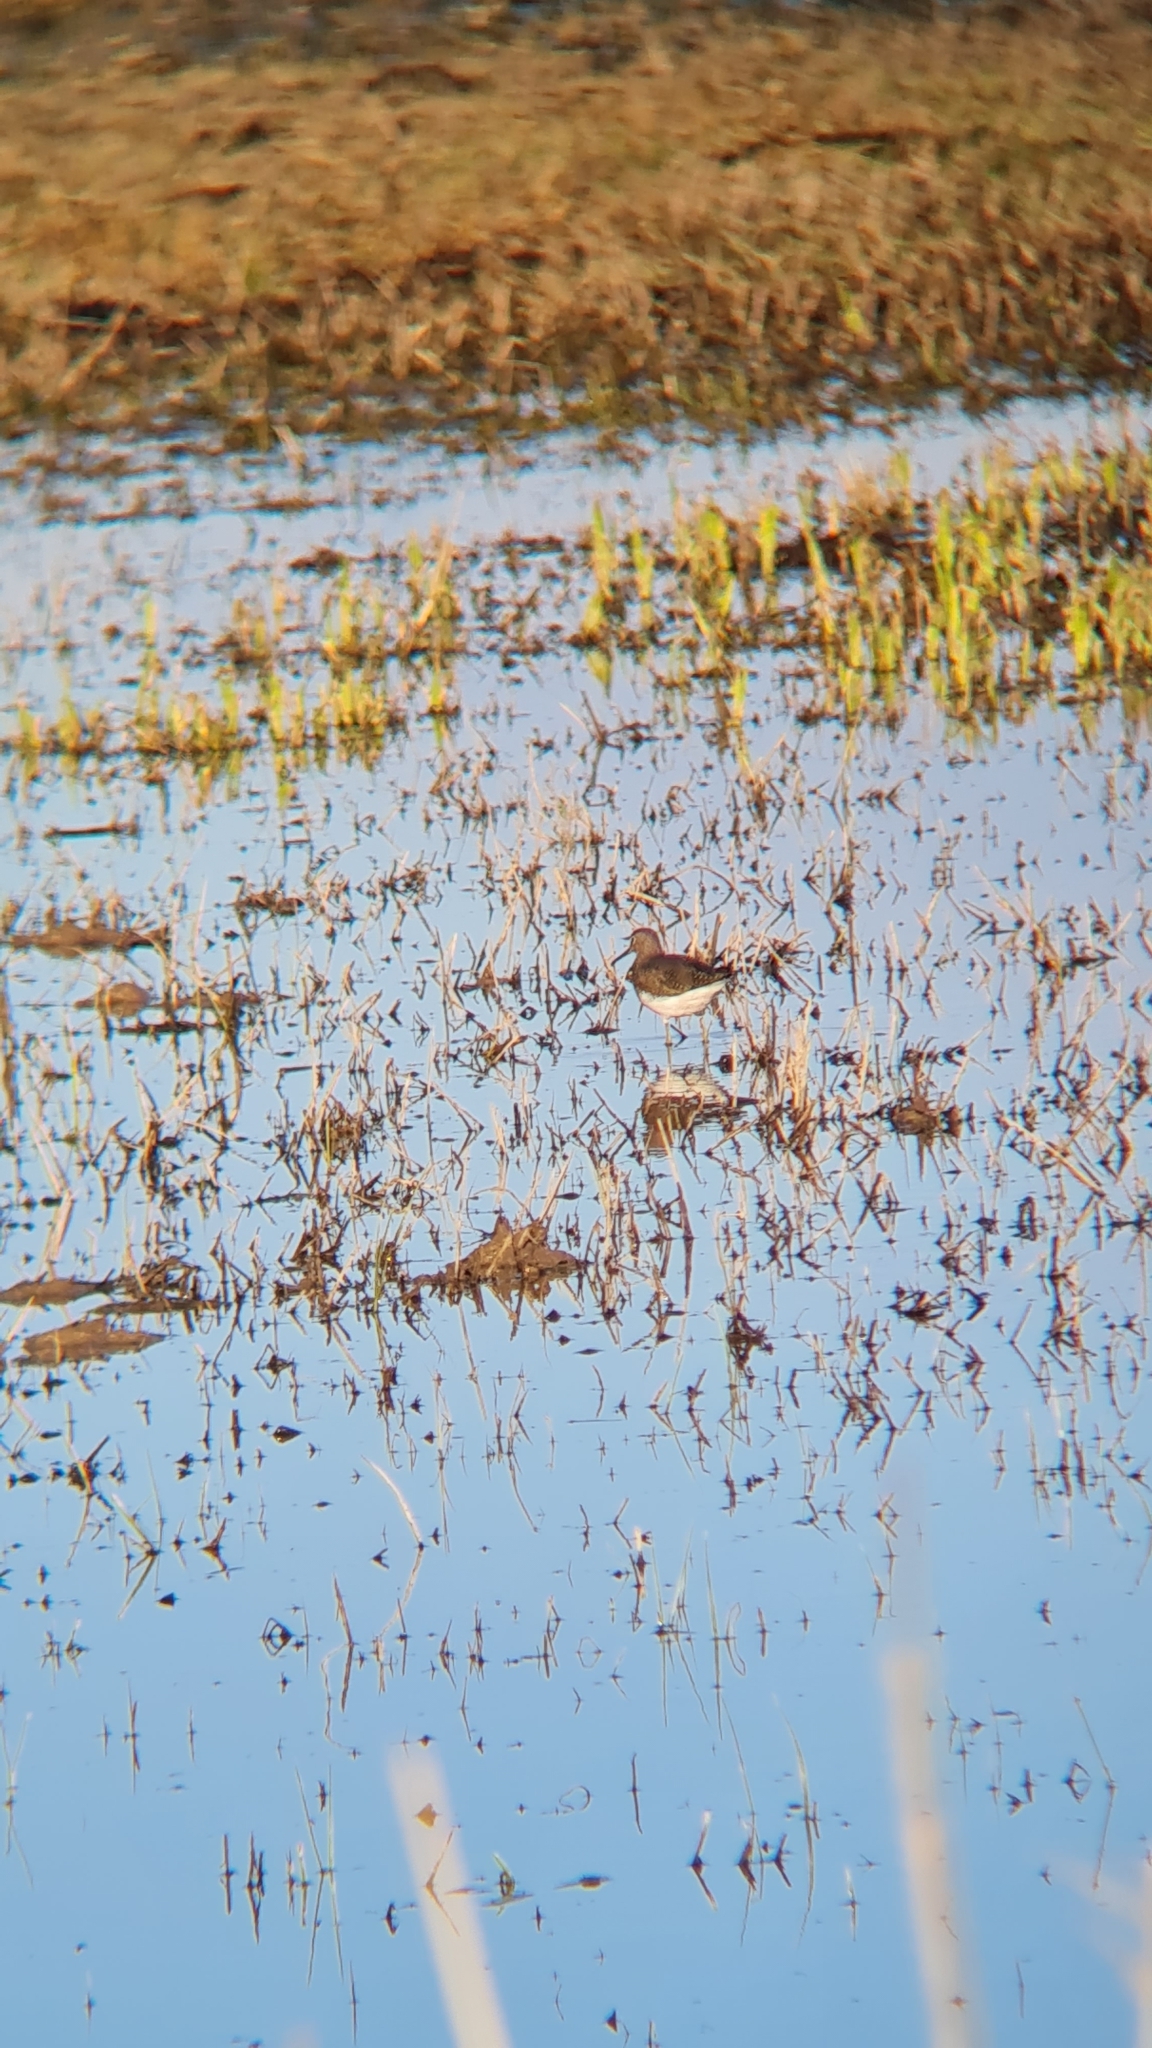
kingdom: Animalia
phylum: Chordata
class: Aves
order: Charadriiformes
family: Scolopacidae
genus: Tringa
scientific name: Tringa ochropus
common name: Green sandpiper
